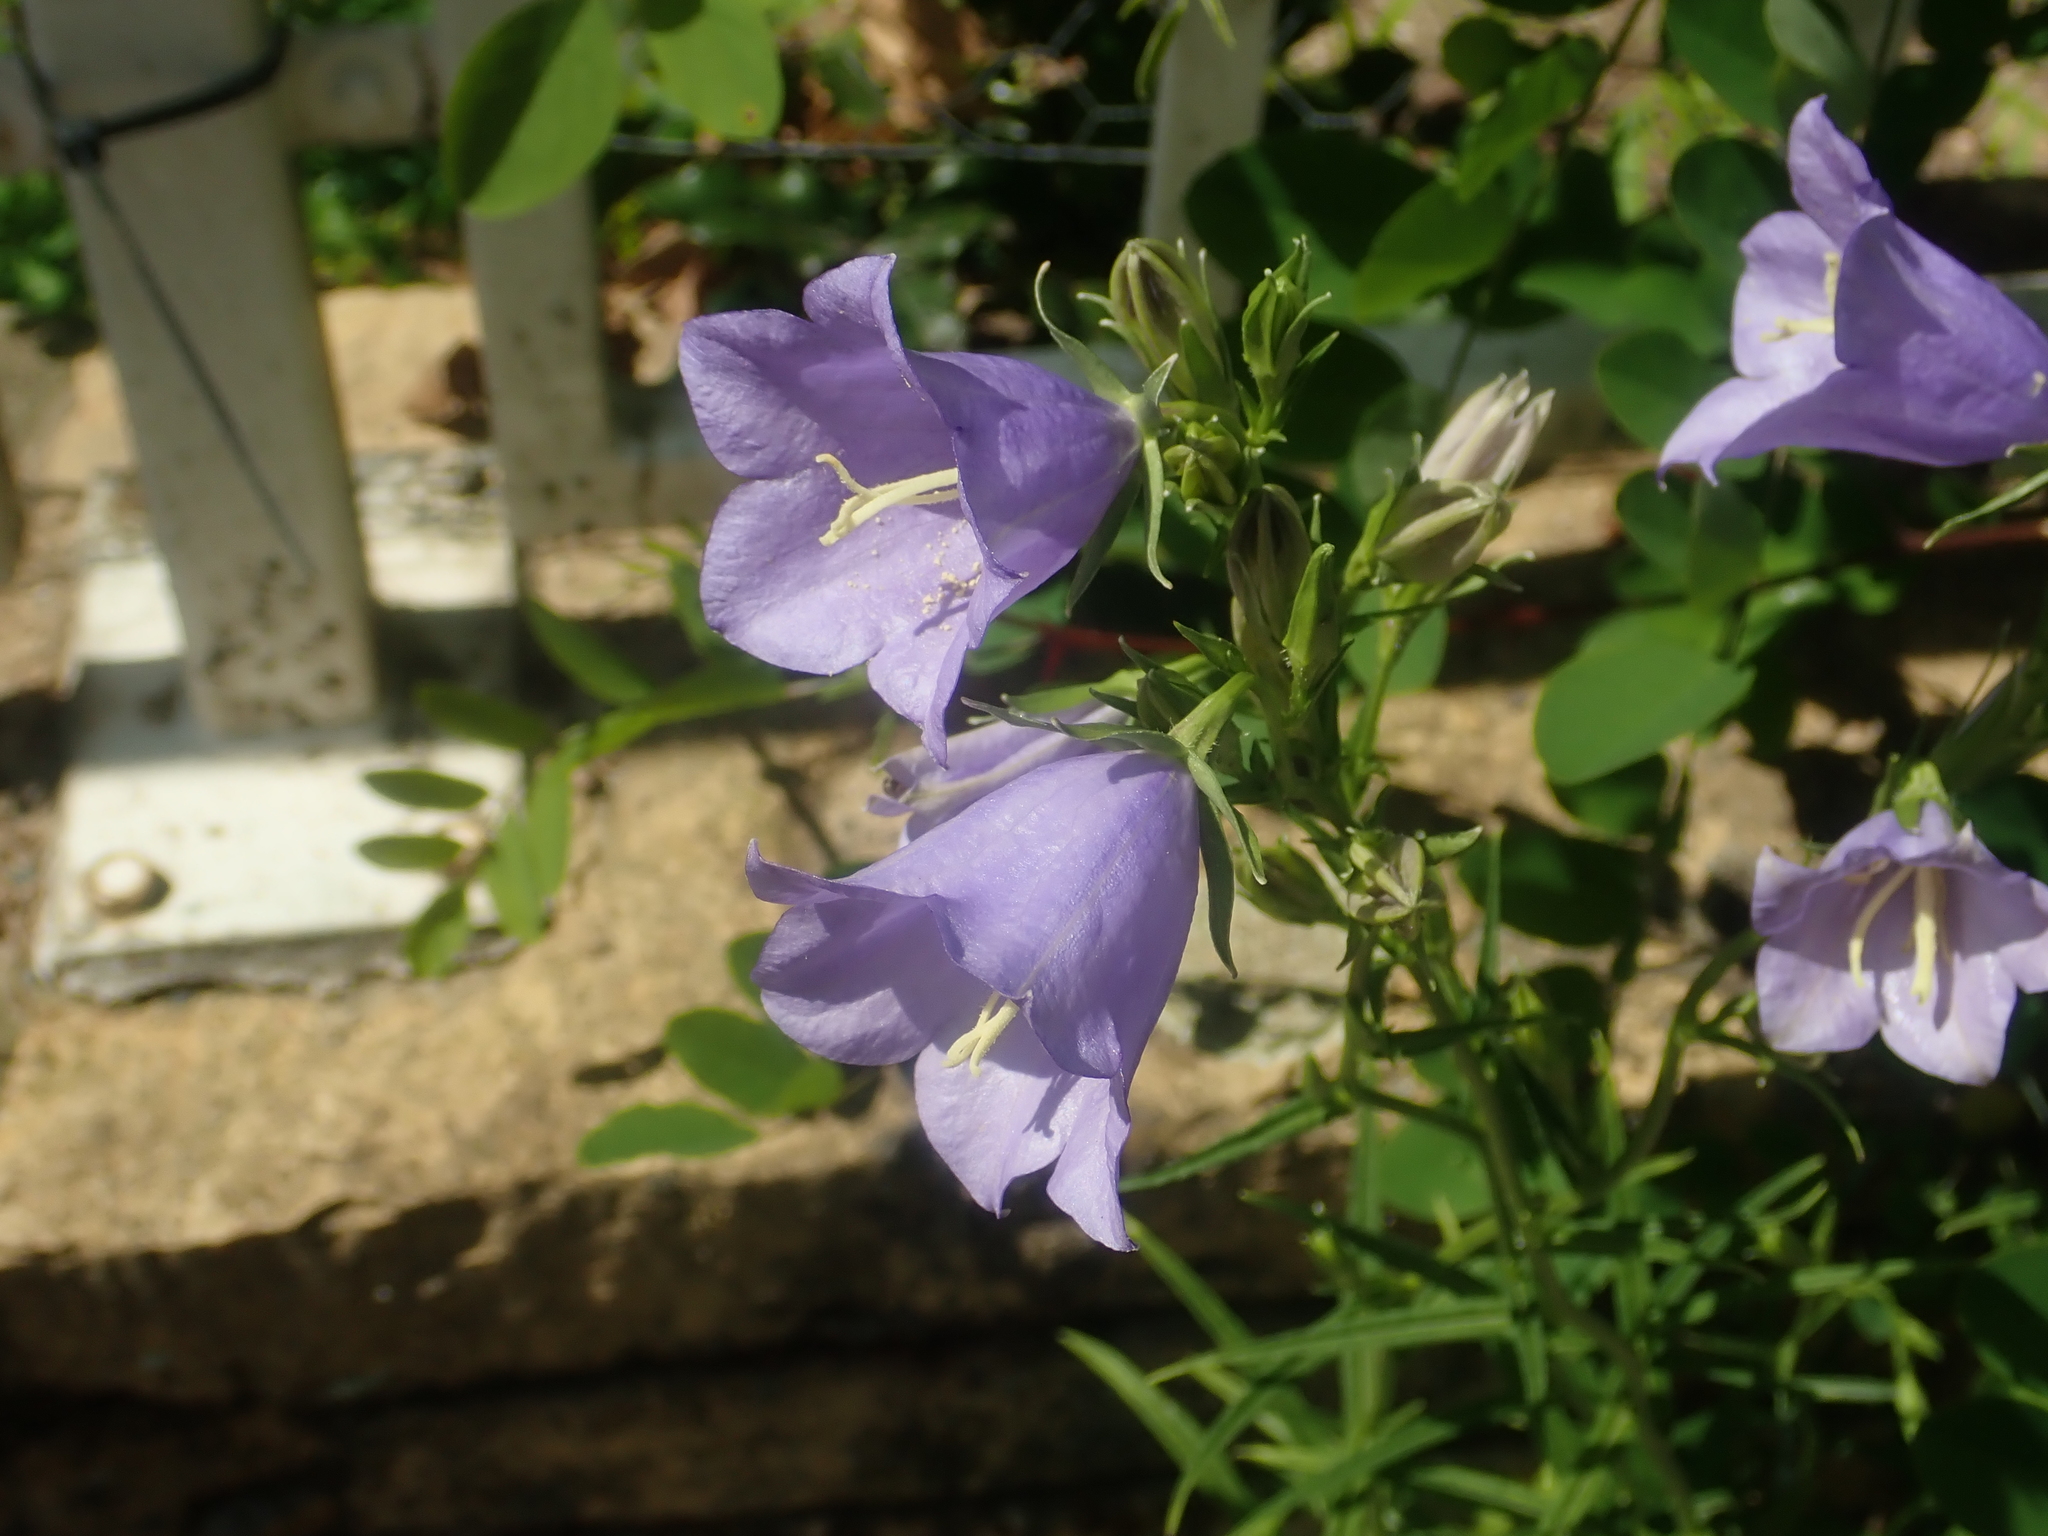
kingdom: Plantae
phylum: Tracheophyta
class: Magnoliopsida
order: Asterales
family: Campanulaceae
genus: Campanula
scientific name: Campanula persicifolia
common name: Peach-leaved bellflower
